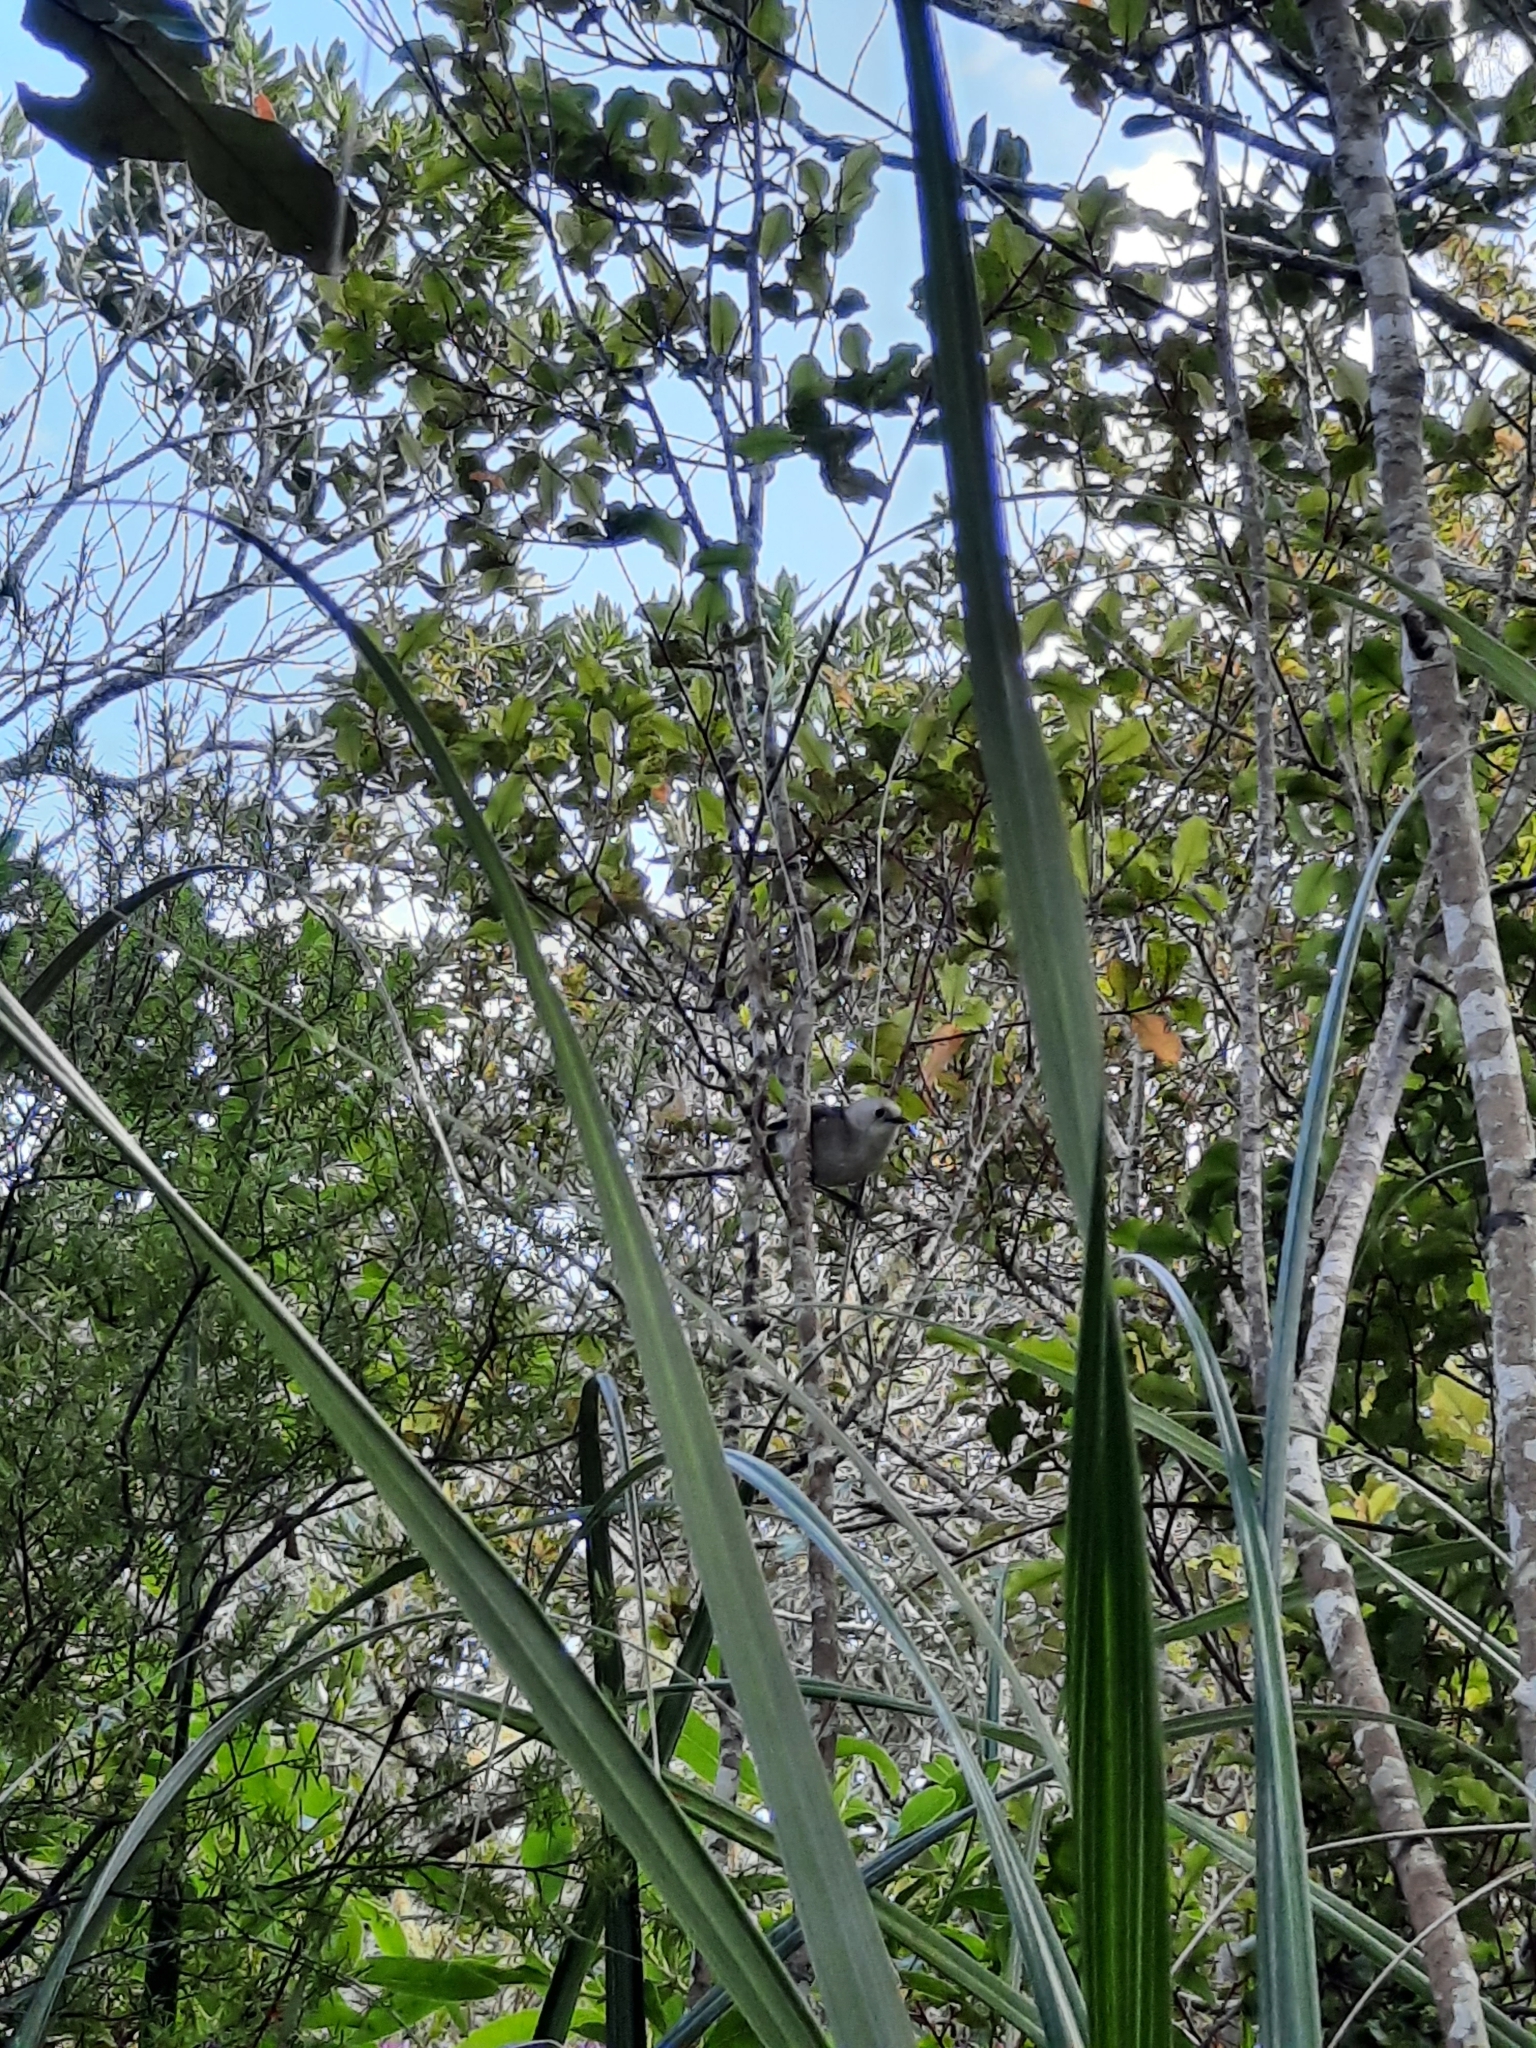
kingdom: Animalia
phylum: Chordata
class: Aves
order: Passeriformes
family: Acanthizidae
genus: Mohoua
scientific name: Mohoua albicilla
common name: Whitehead
